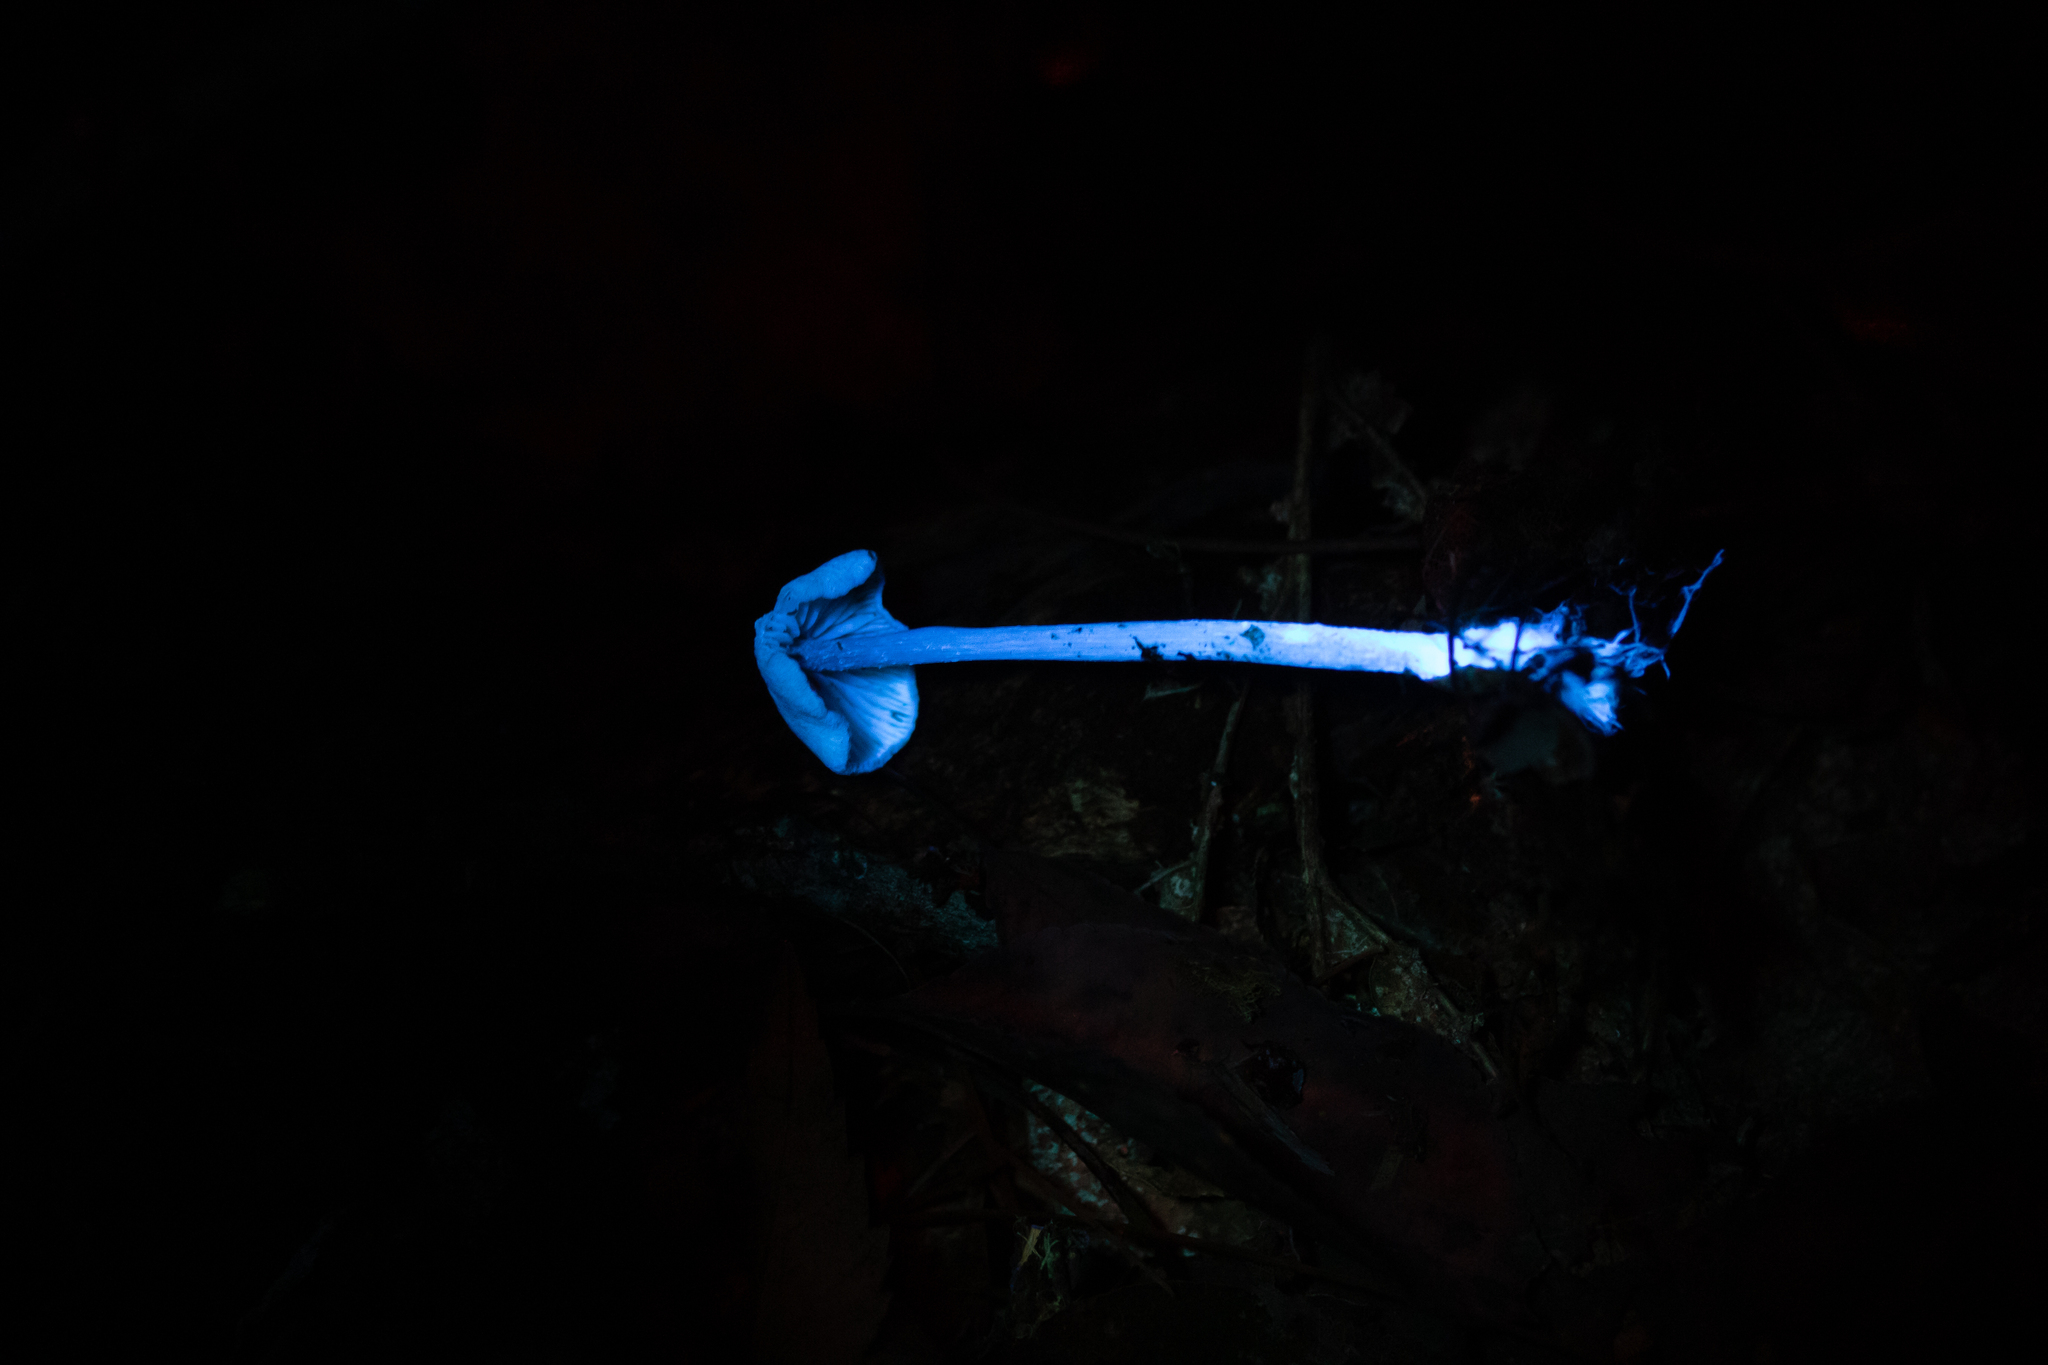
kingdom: Fungi
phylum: Basidiomycota
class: Agaricomycetes
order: Agaricales
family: Callistosporiaceae
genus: Callistosporium
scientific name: Callistosporium pseudofelleum
